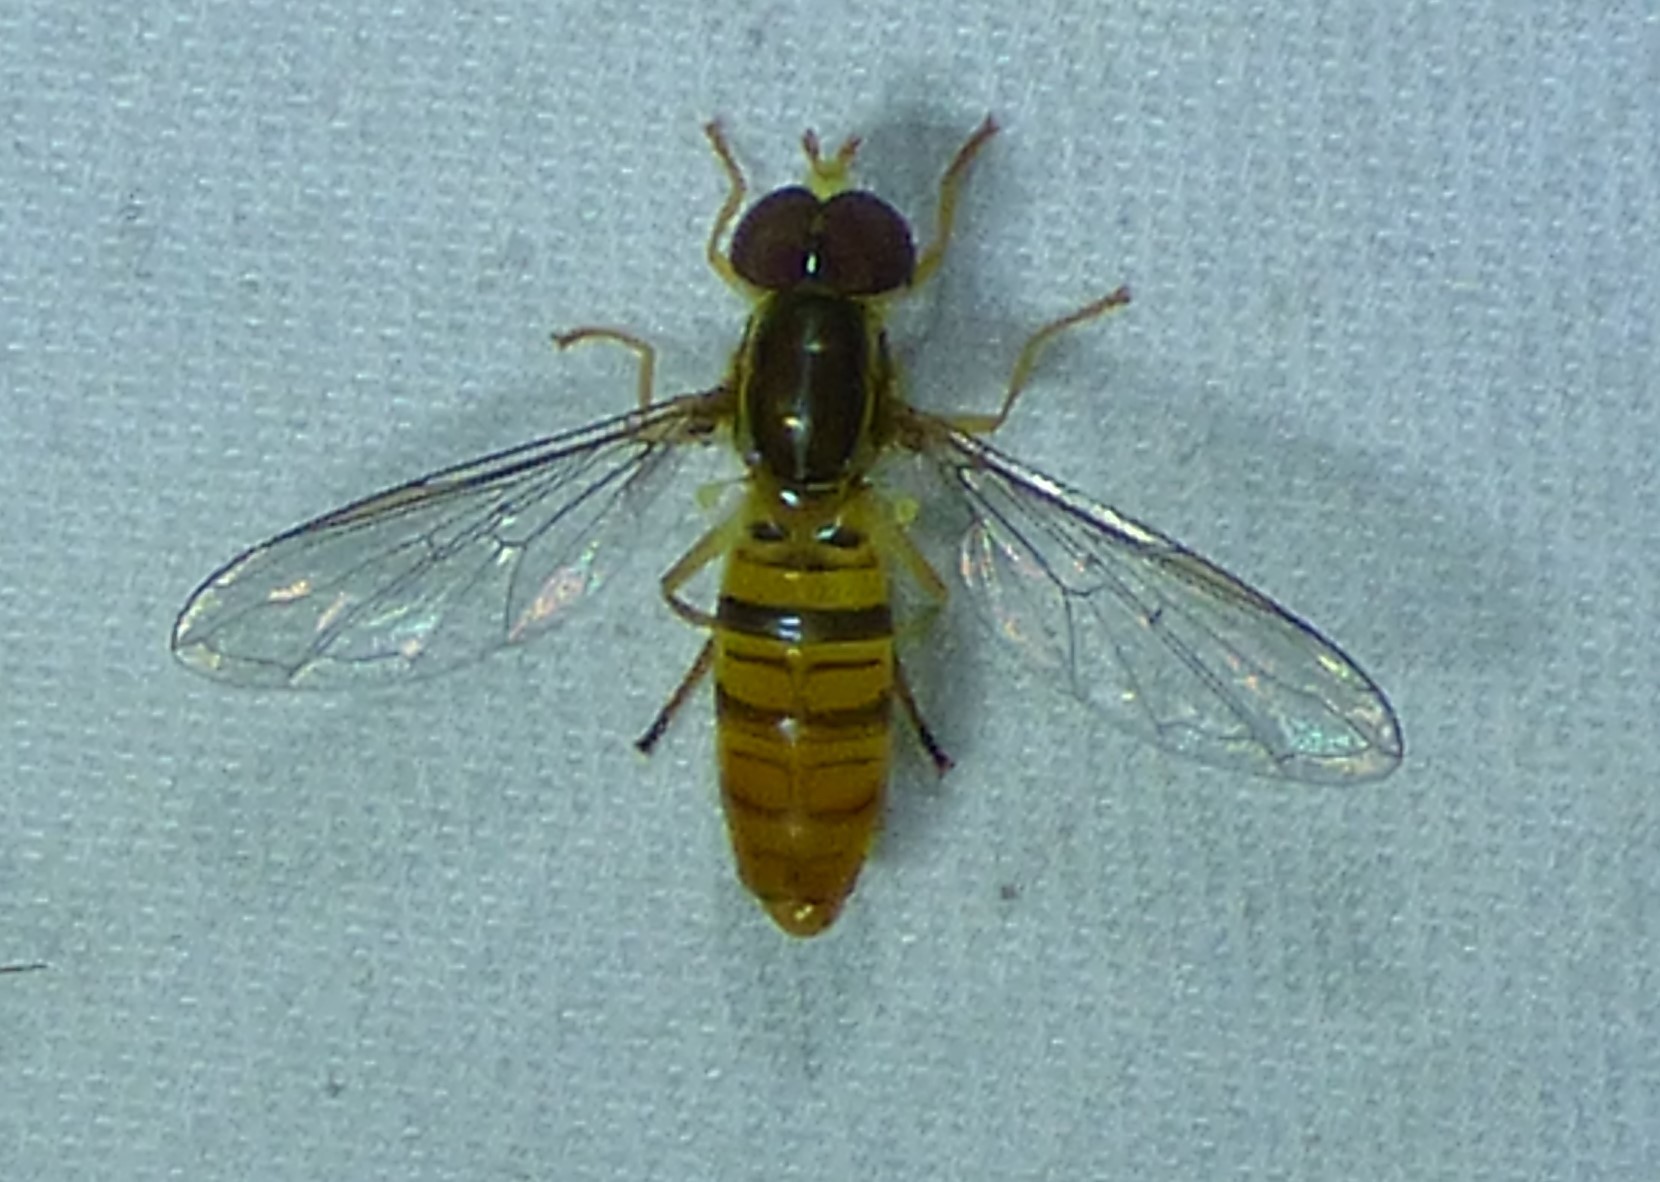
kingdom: Animalia
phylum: Arthropoda
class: Insecta
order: Diptera
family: Syrphidae
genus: Toxomerus
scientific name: Toxomerus politus
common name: Maize calligrapher
